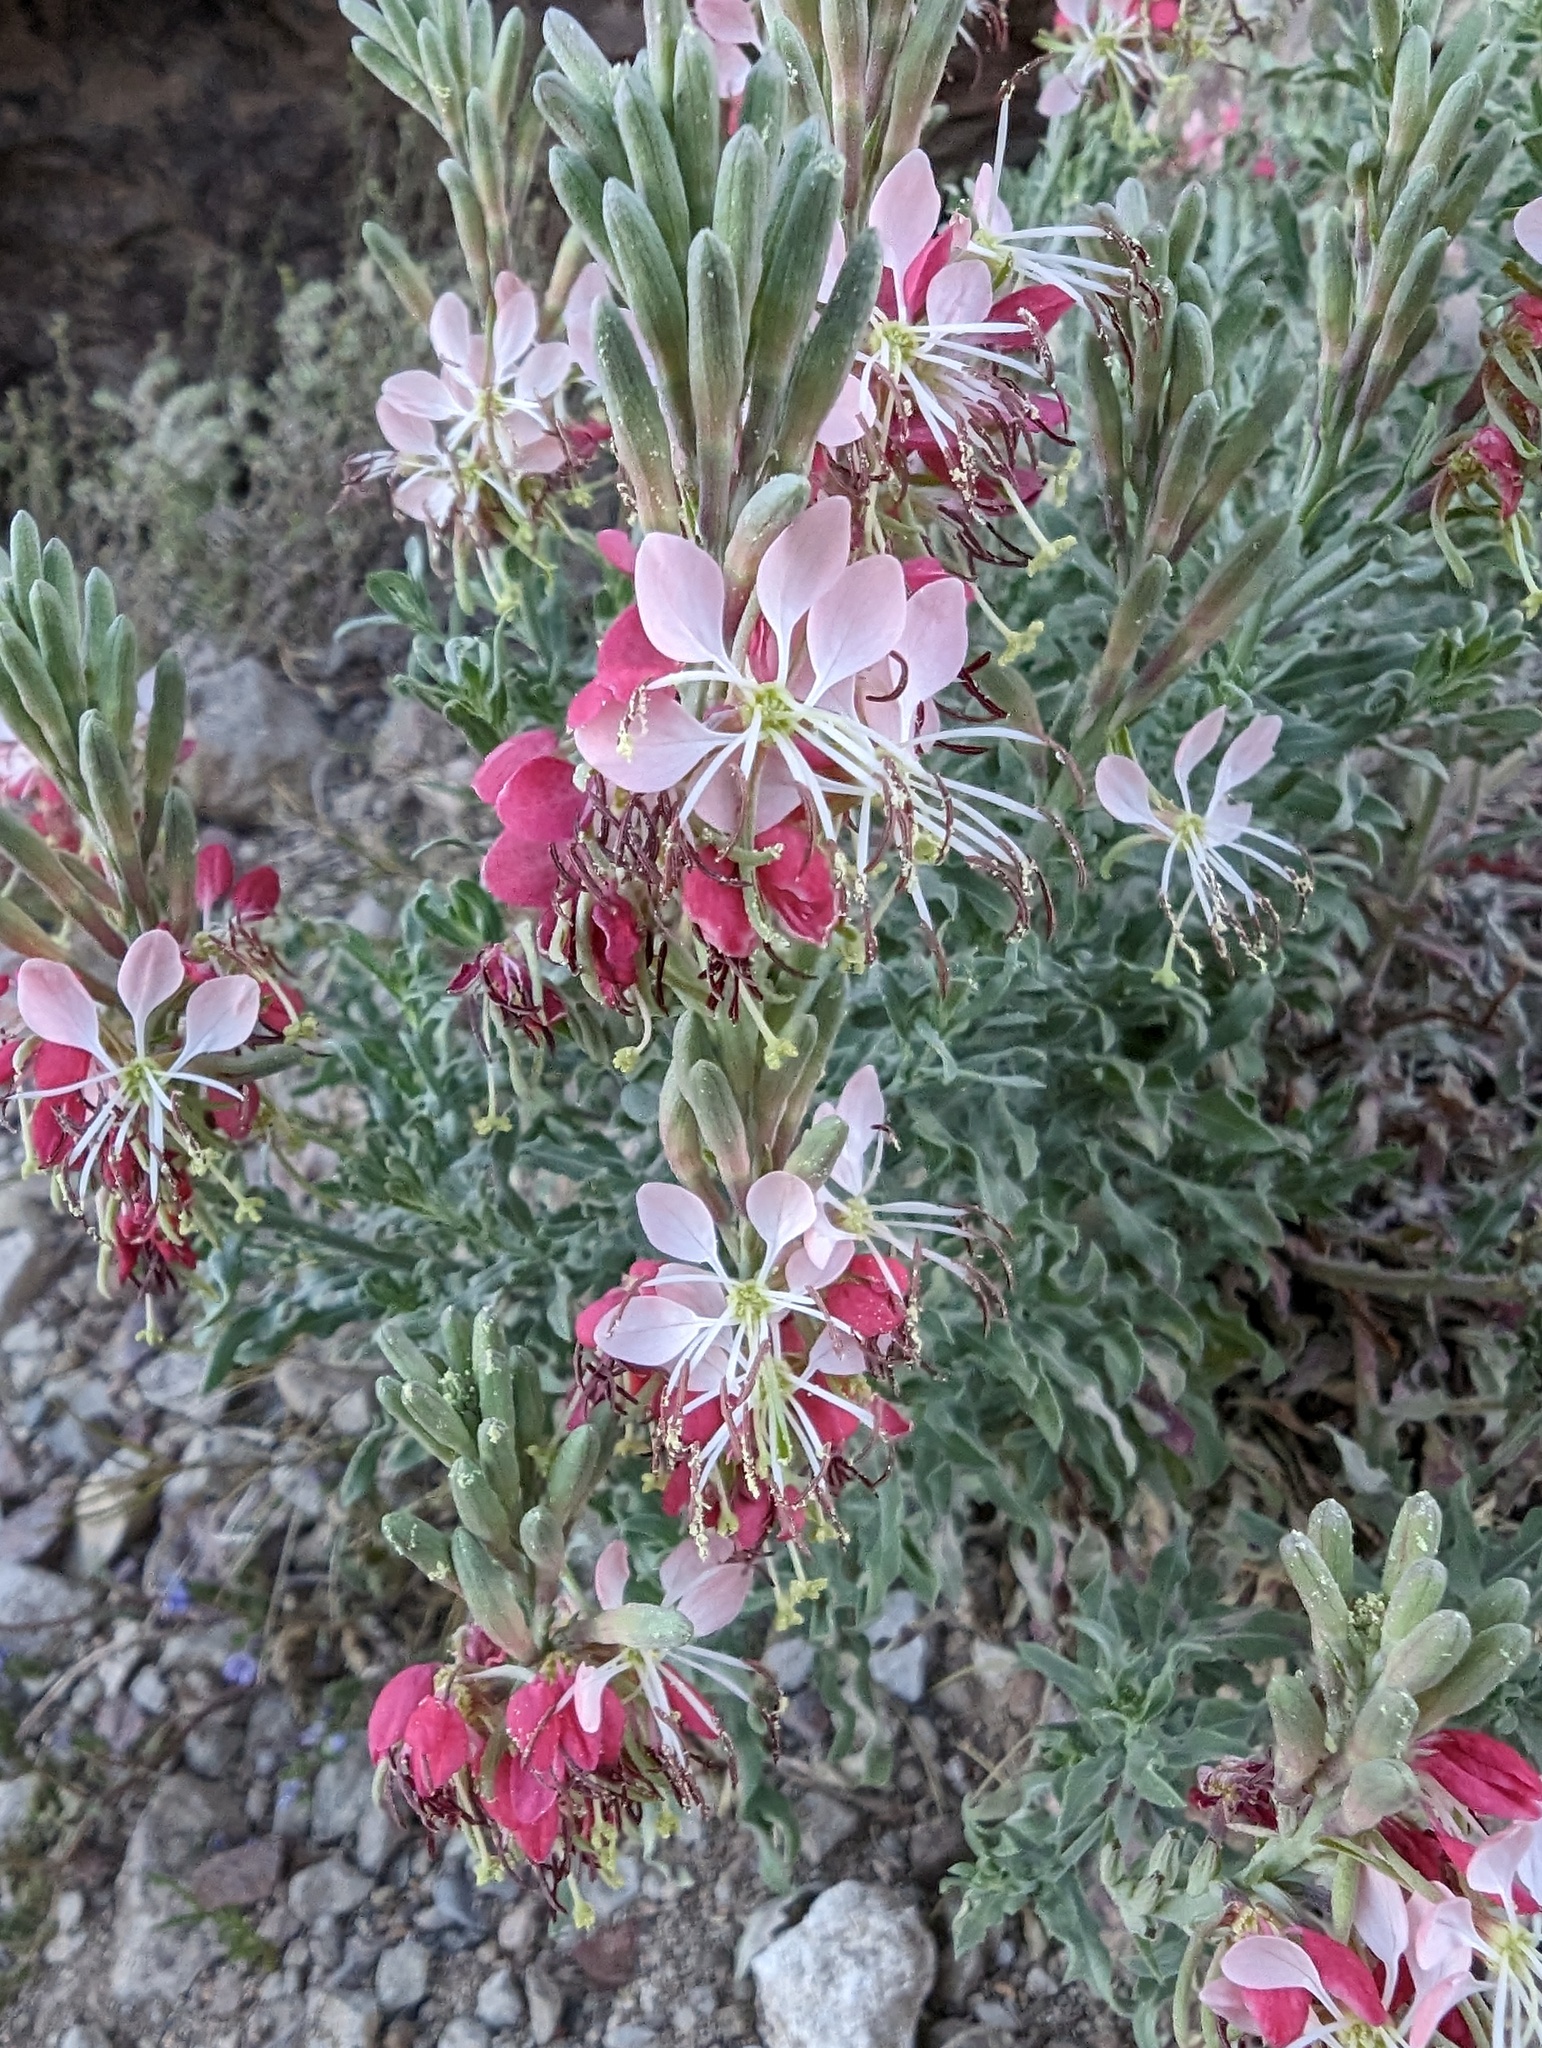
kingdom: Plantae
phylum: Tracheophyta
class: Magnoliopsida
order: Myrtales
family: Onagraceae
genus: Oenothera
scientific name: Oenothera suffrutescens
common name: Scarlet beeblossom
